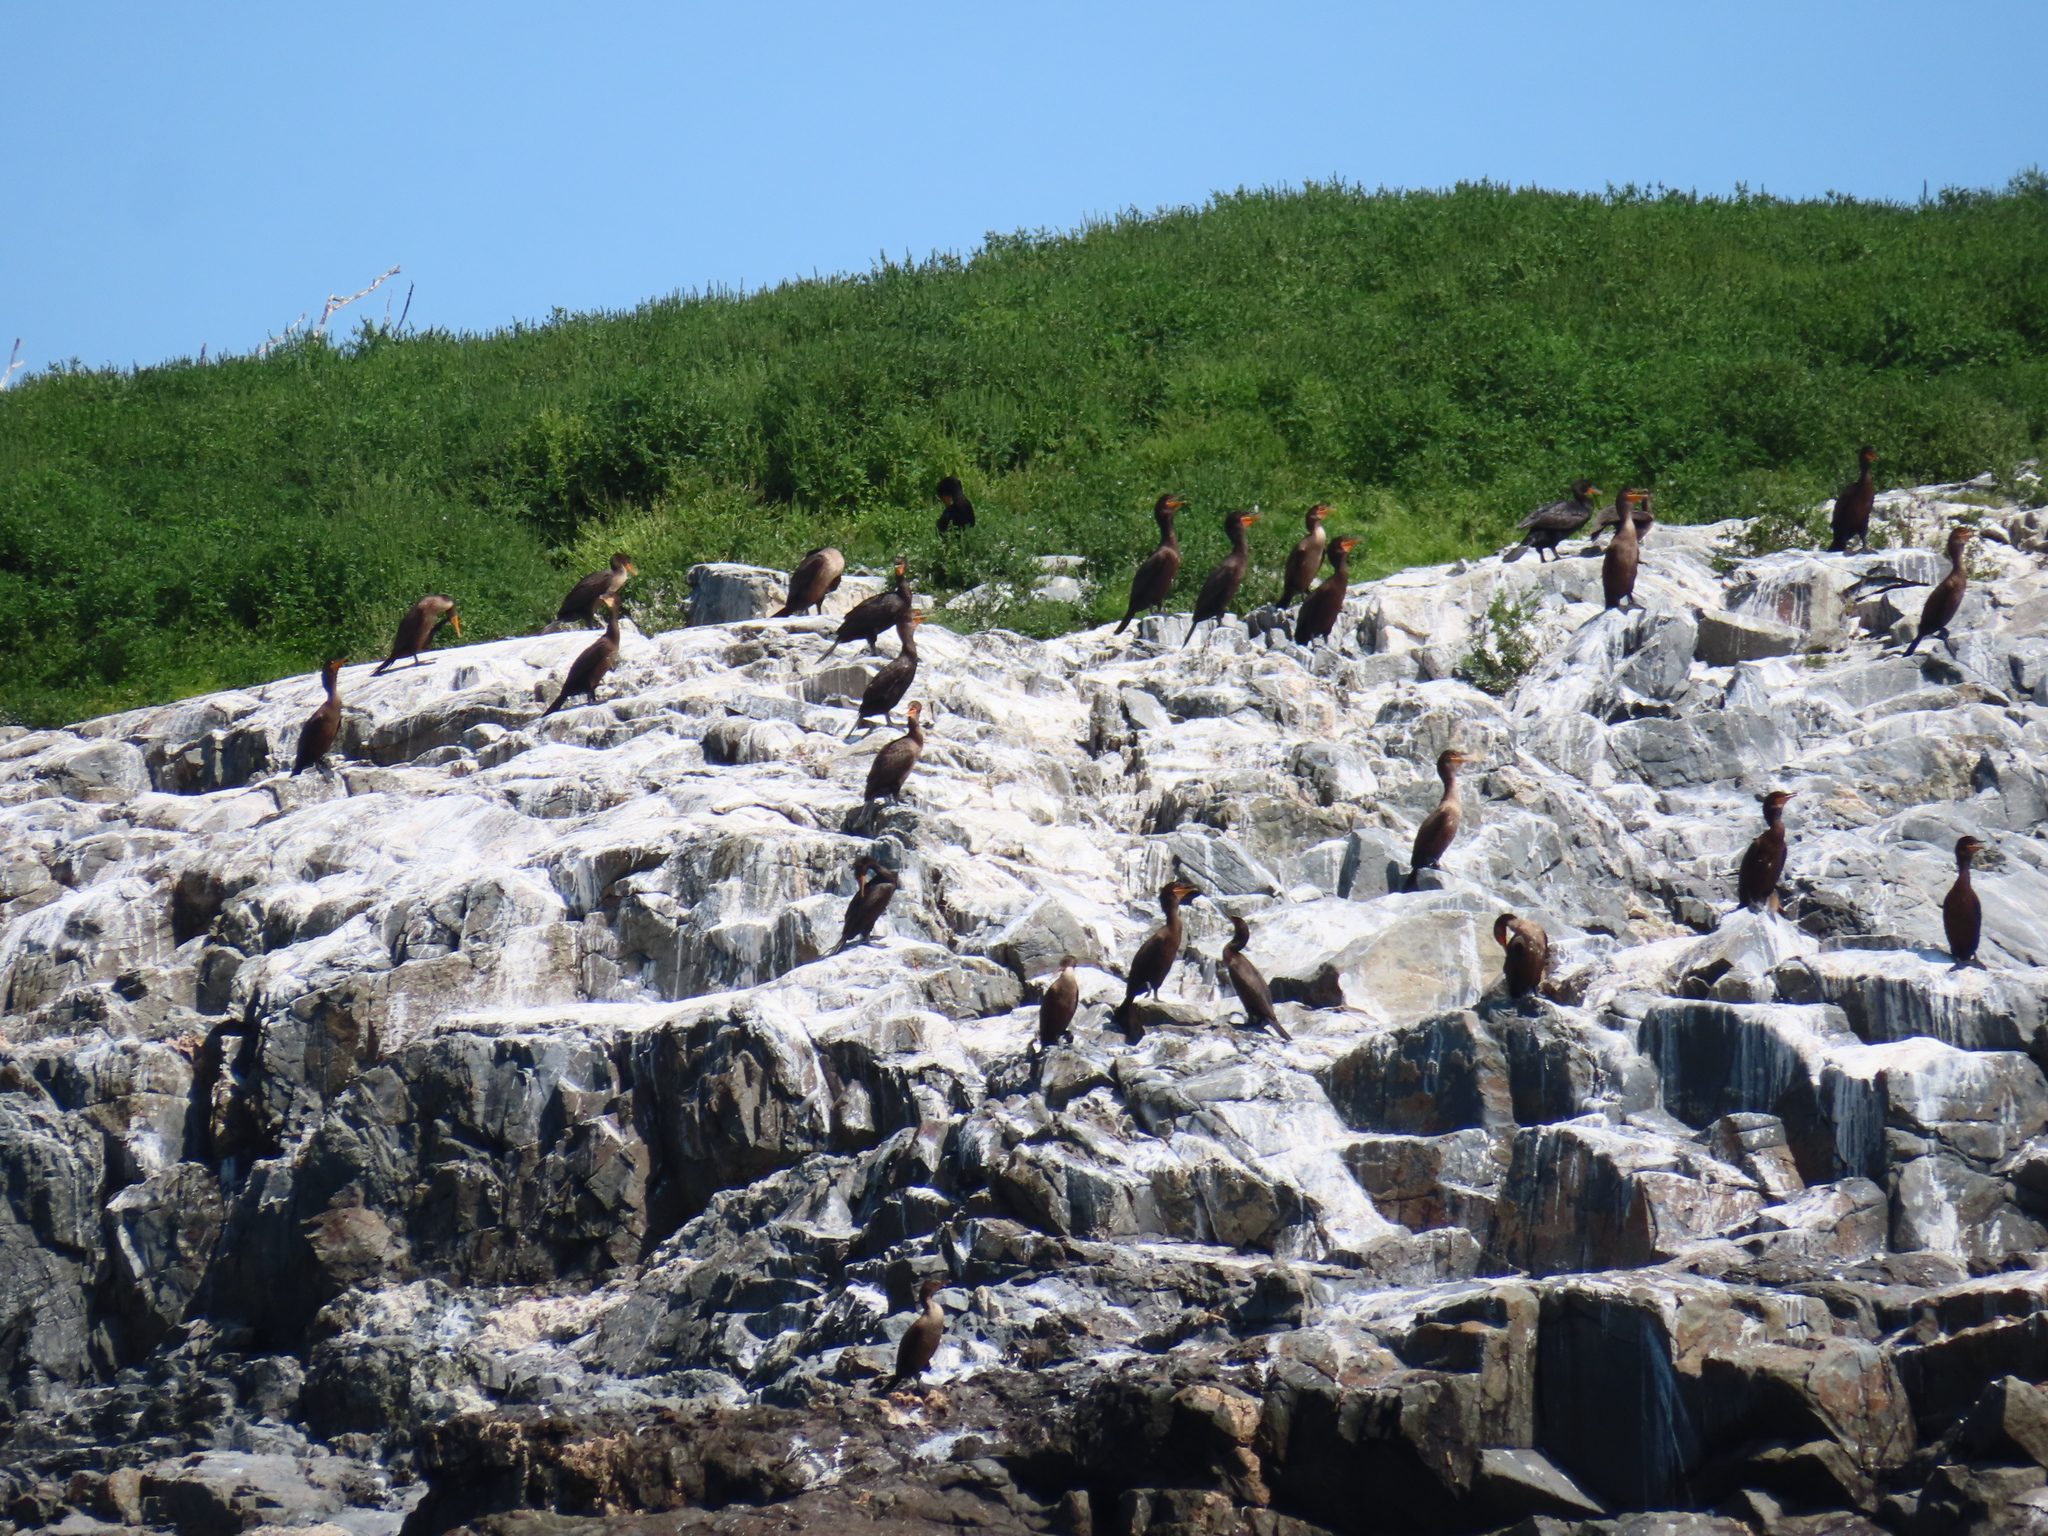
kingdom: Animalia
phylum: Chordata
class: Aves
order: Suliformes
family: Phalacrocoracidae
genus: Phalacrocorax
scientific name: Phalacrocorax auritus
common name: Double-crested cormorant
